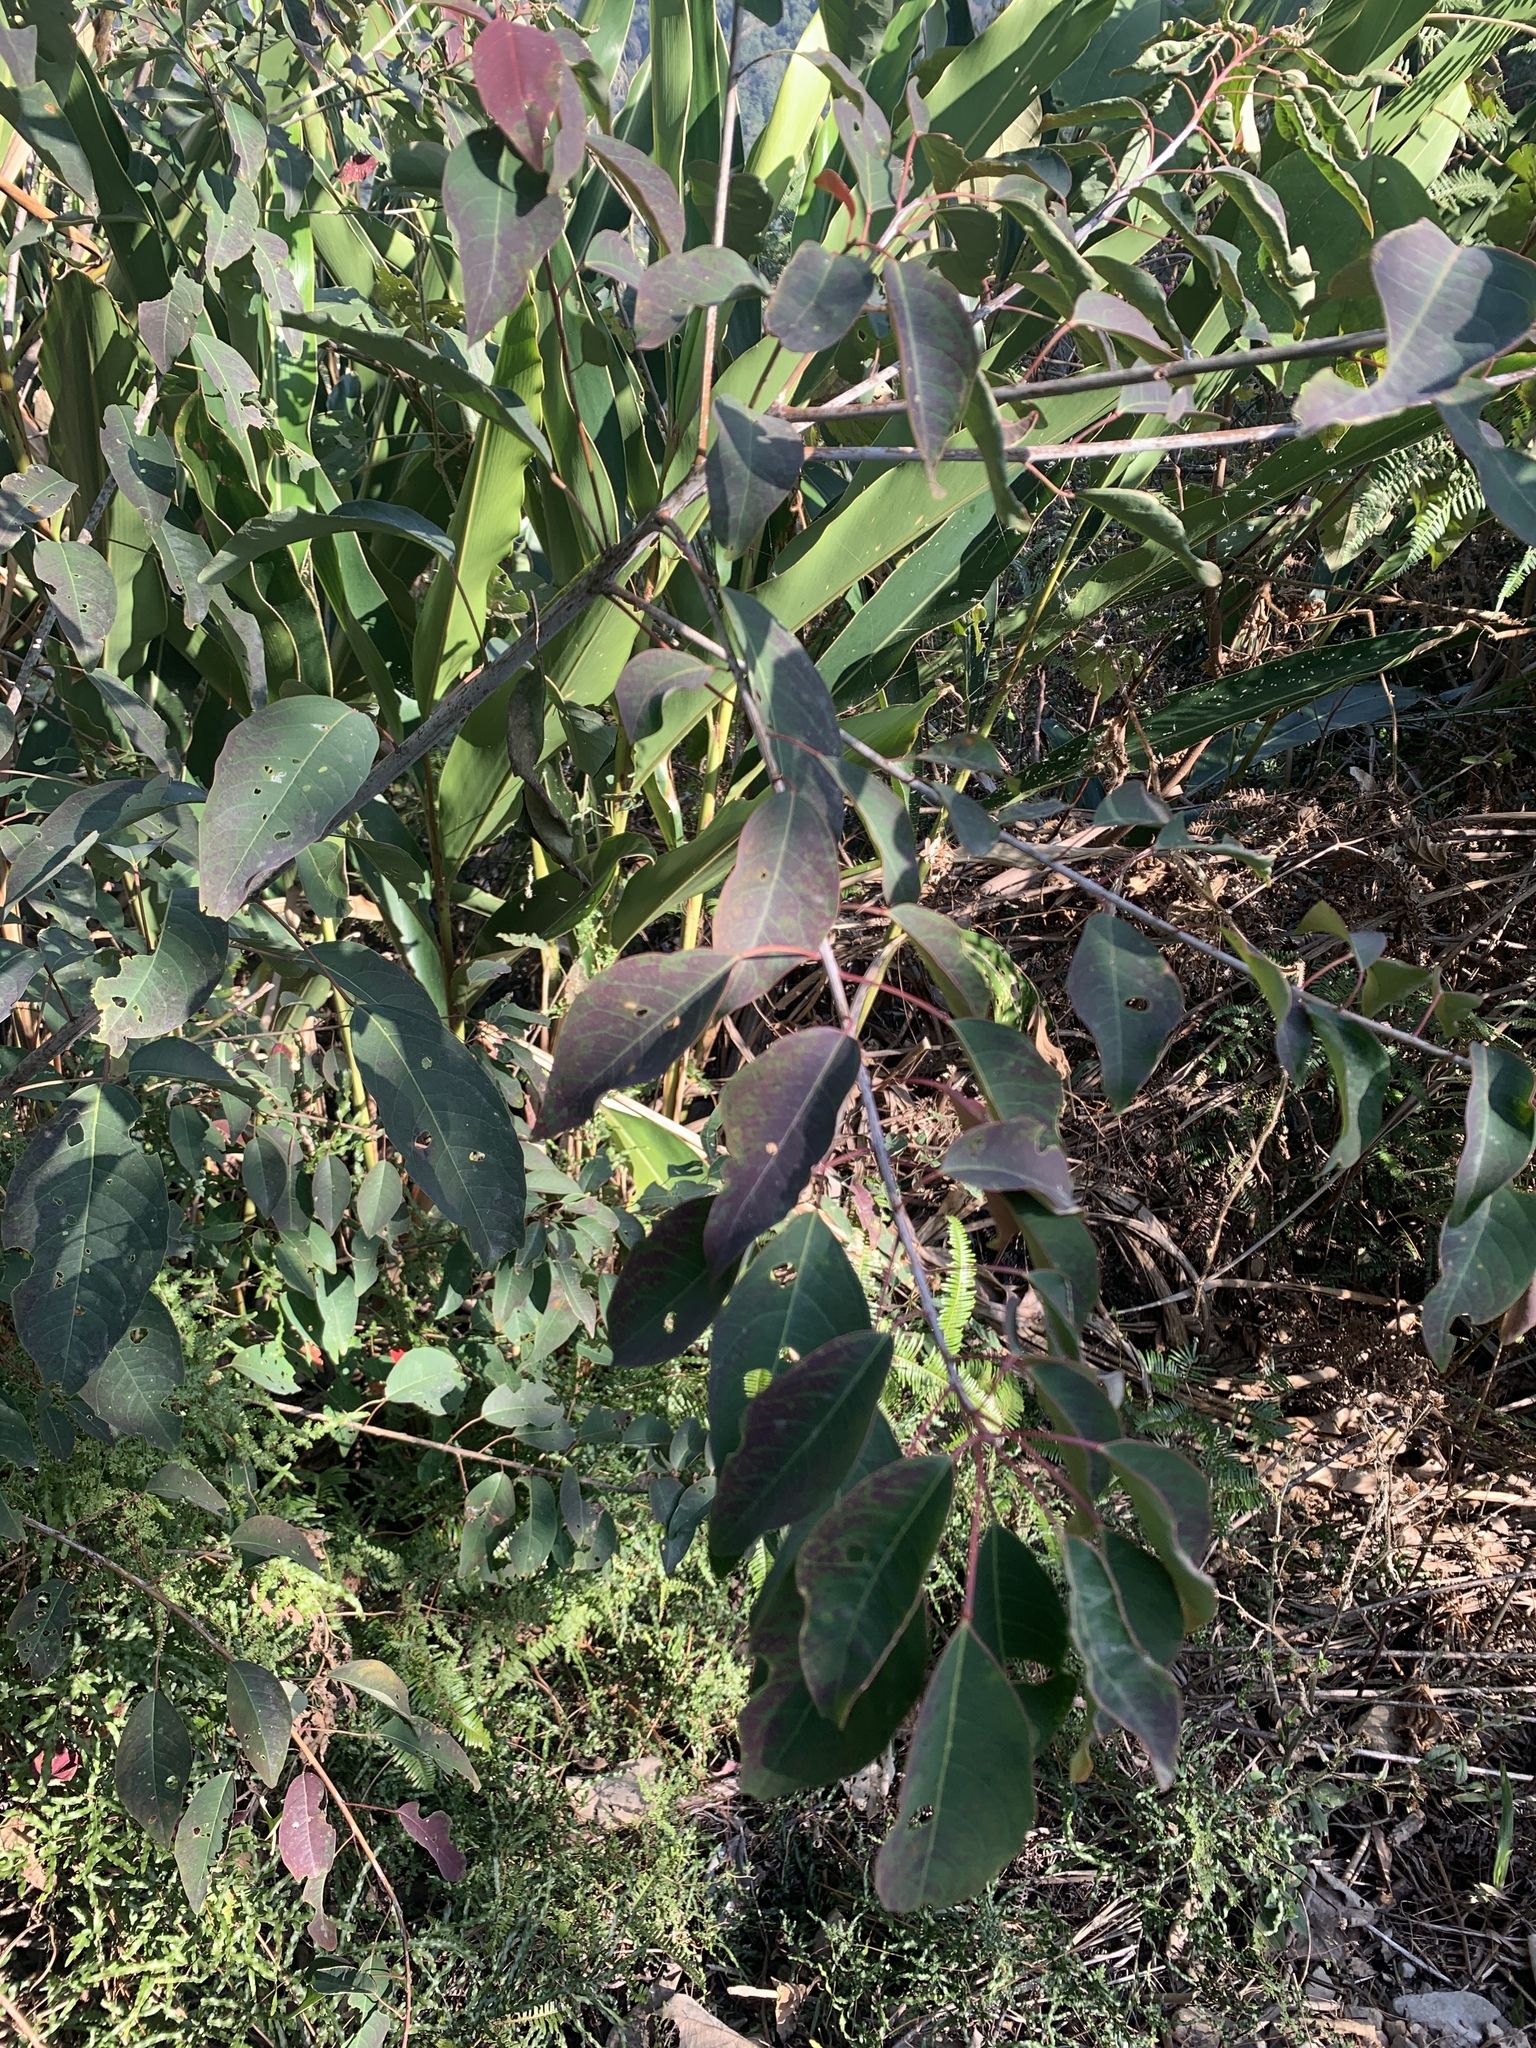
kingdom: Plantae
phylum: Tracheophyta
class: Magnoliopsida
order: Malpighiales
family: Euphorbiaceae
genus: Triadica
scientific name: Triadica cochinchinensis
